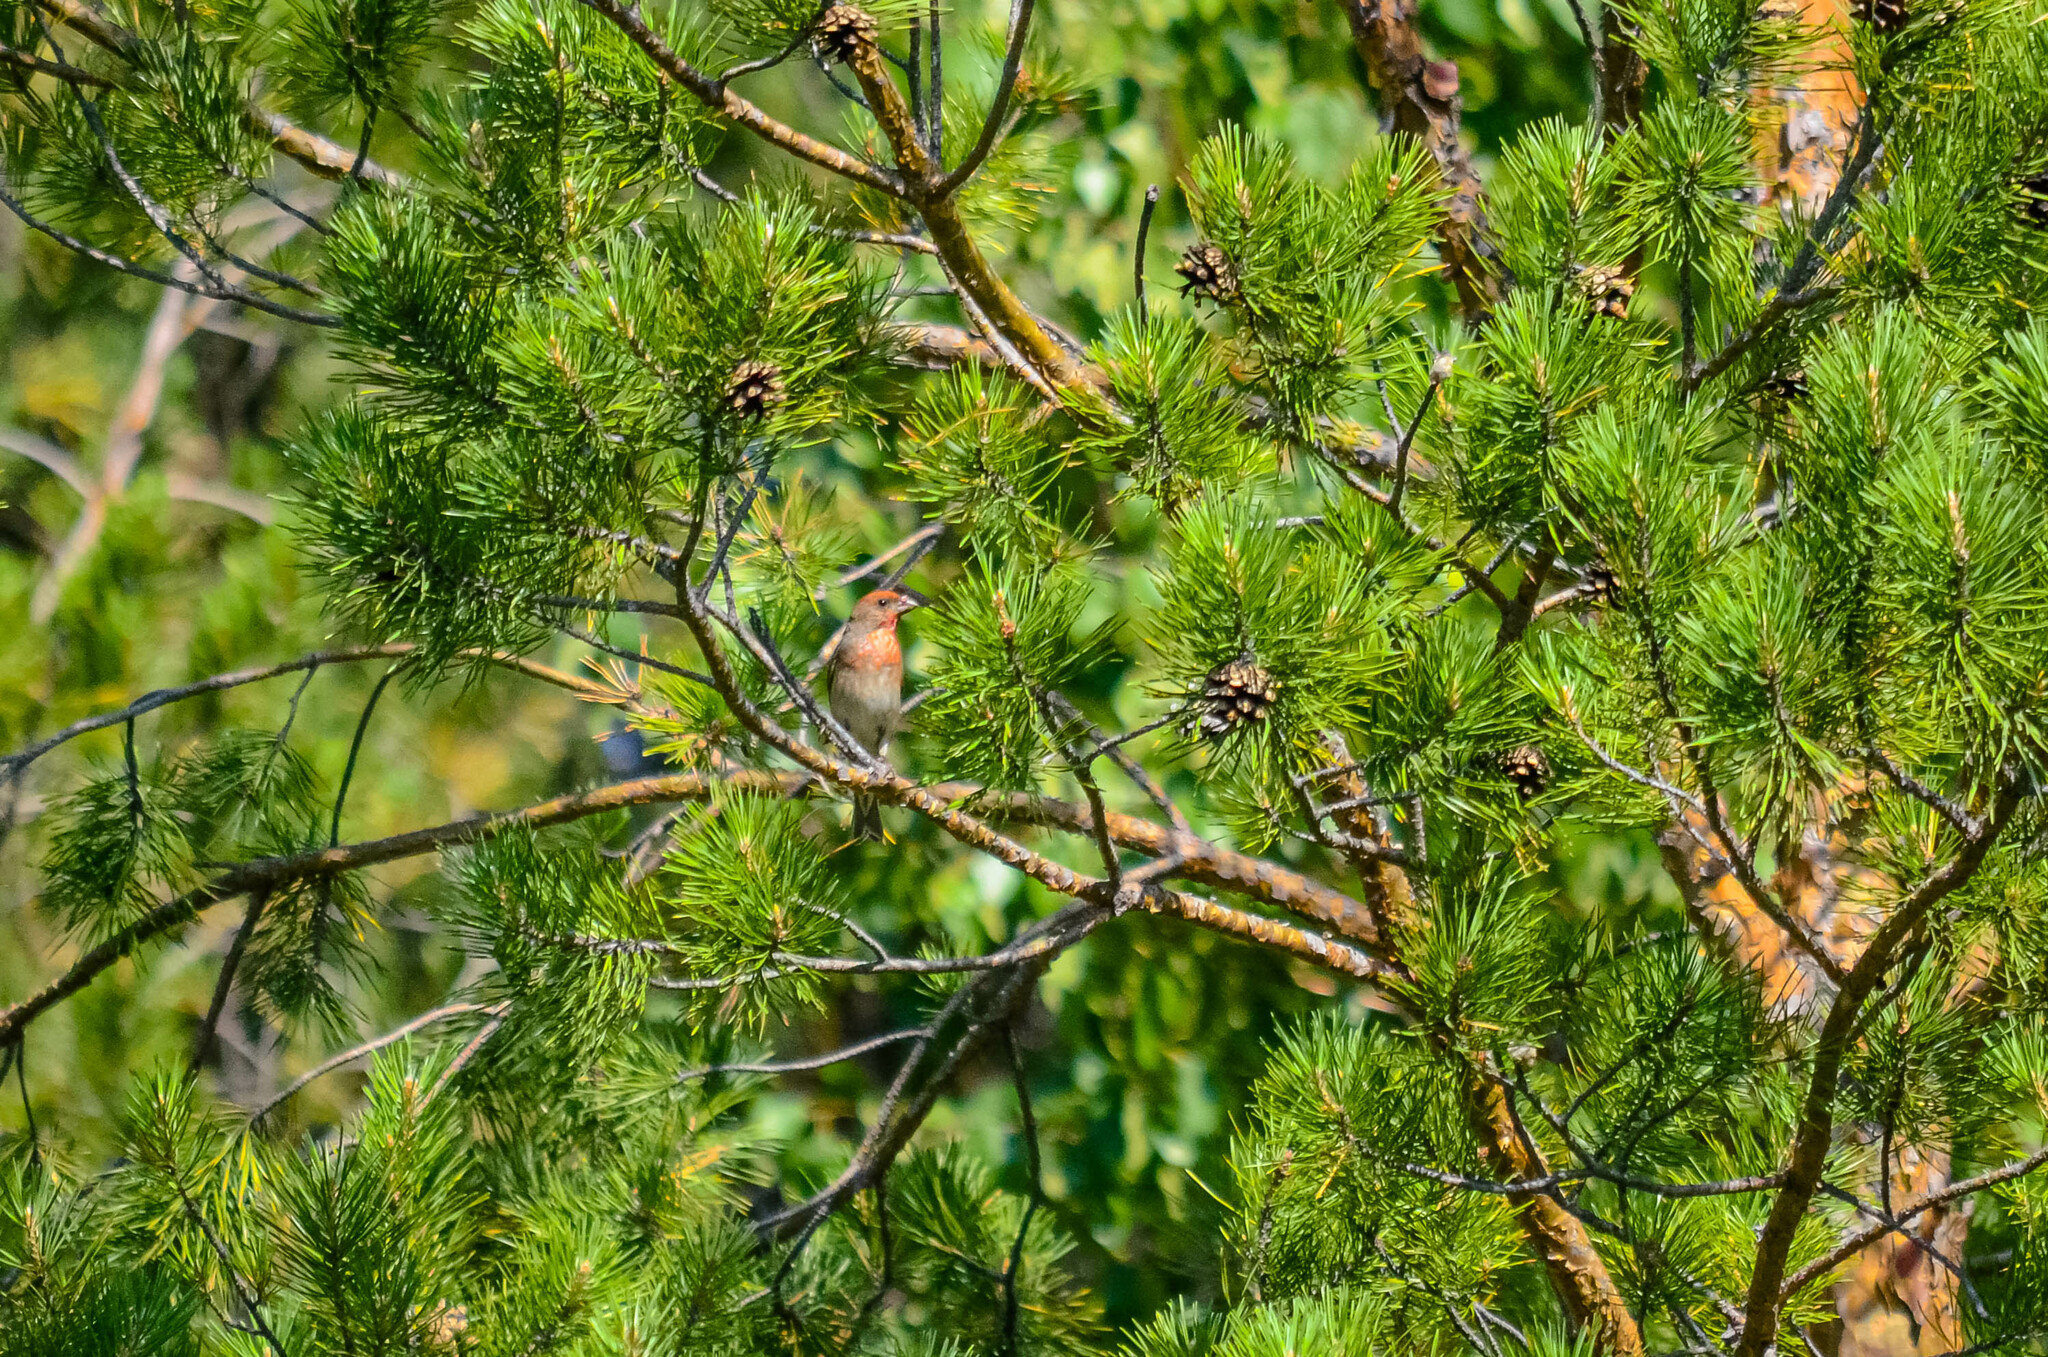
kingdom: Animalia
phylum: Chordata
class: Aves
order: Passeriformes
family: Fringillidae
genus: Carpodacus
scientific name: Carpodacus erythrinus
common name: Common rosefinch
